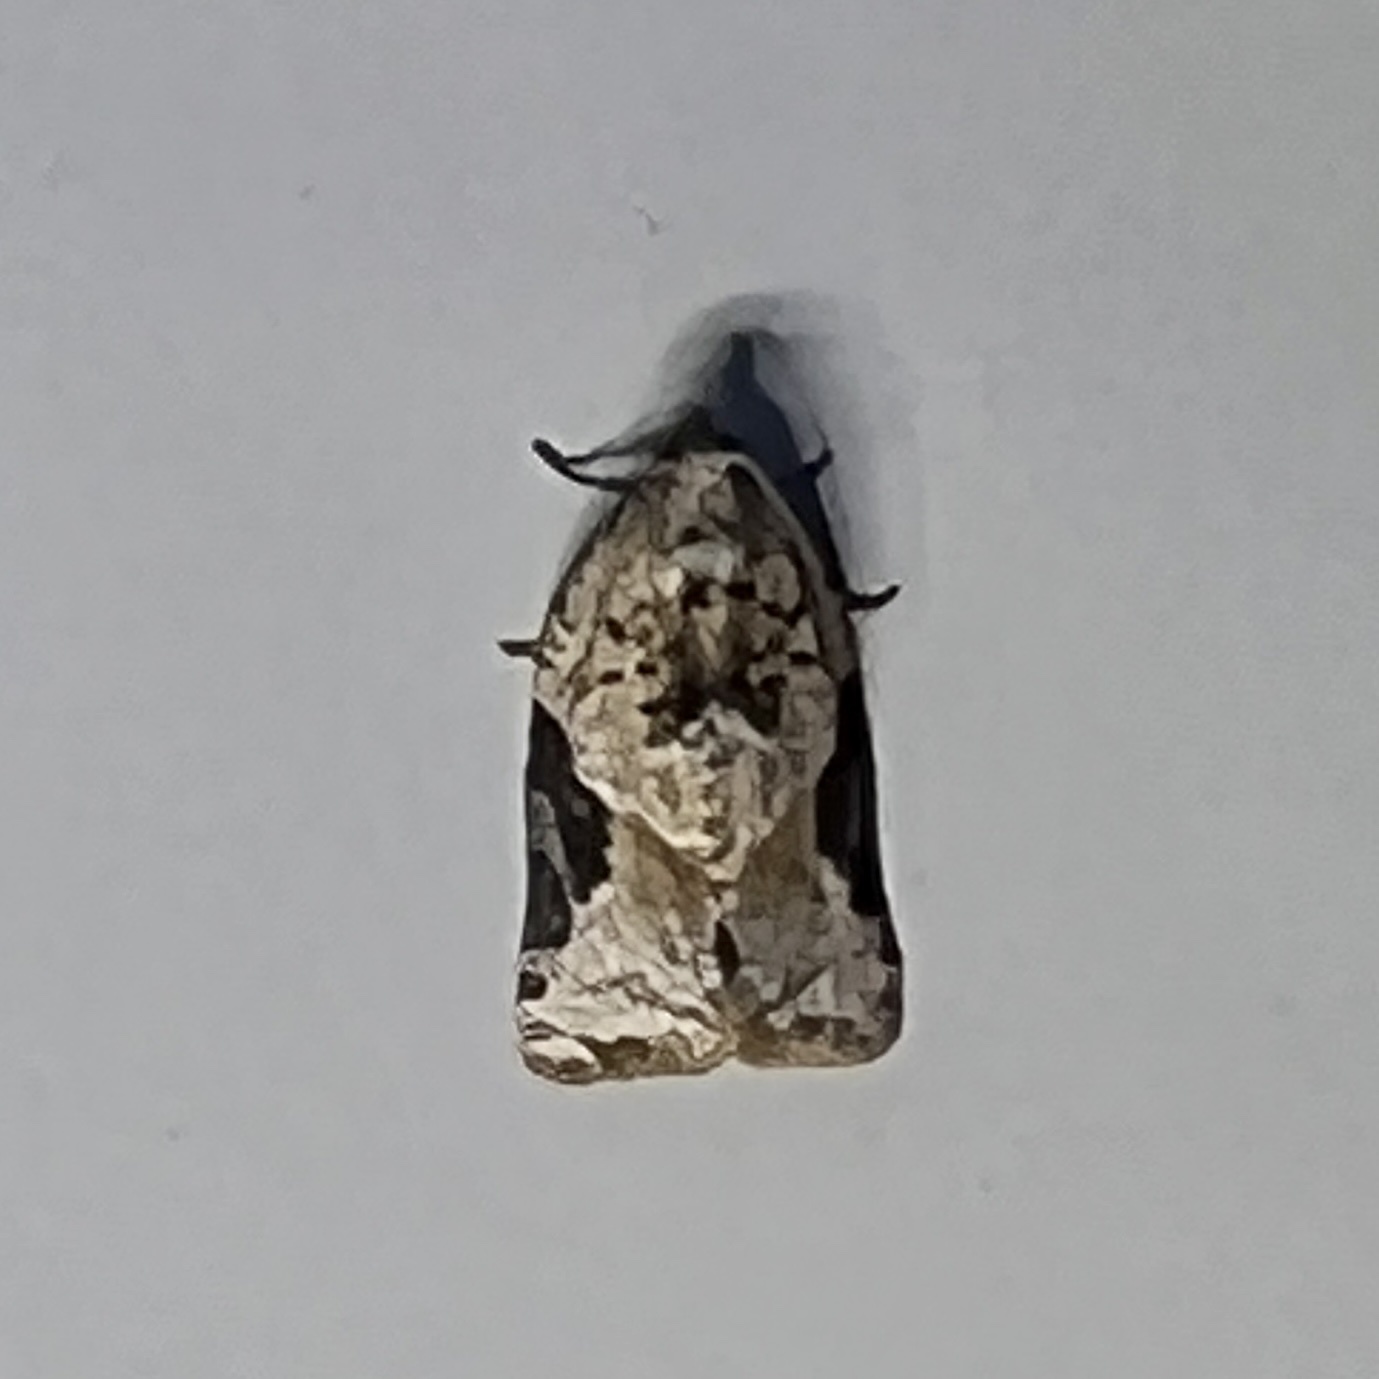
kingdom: Animalia
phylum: Arthropoda
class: Insecta
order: Lepidoptera
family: Tortricidae
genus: Argyrotaenia
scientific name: Argyrotaenia mariana
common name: Gray-banded leafroller moth
